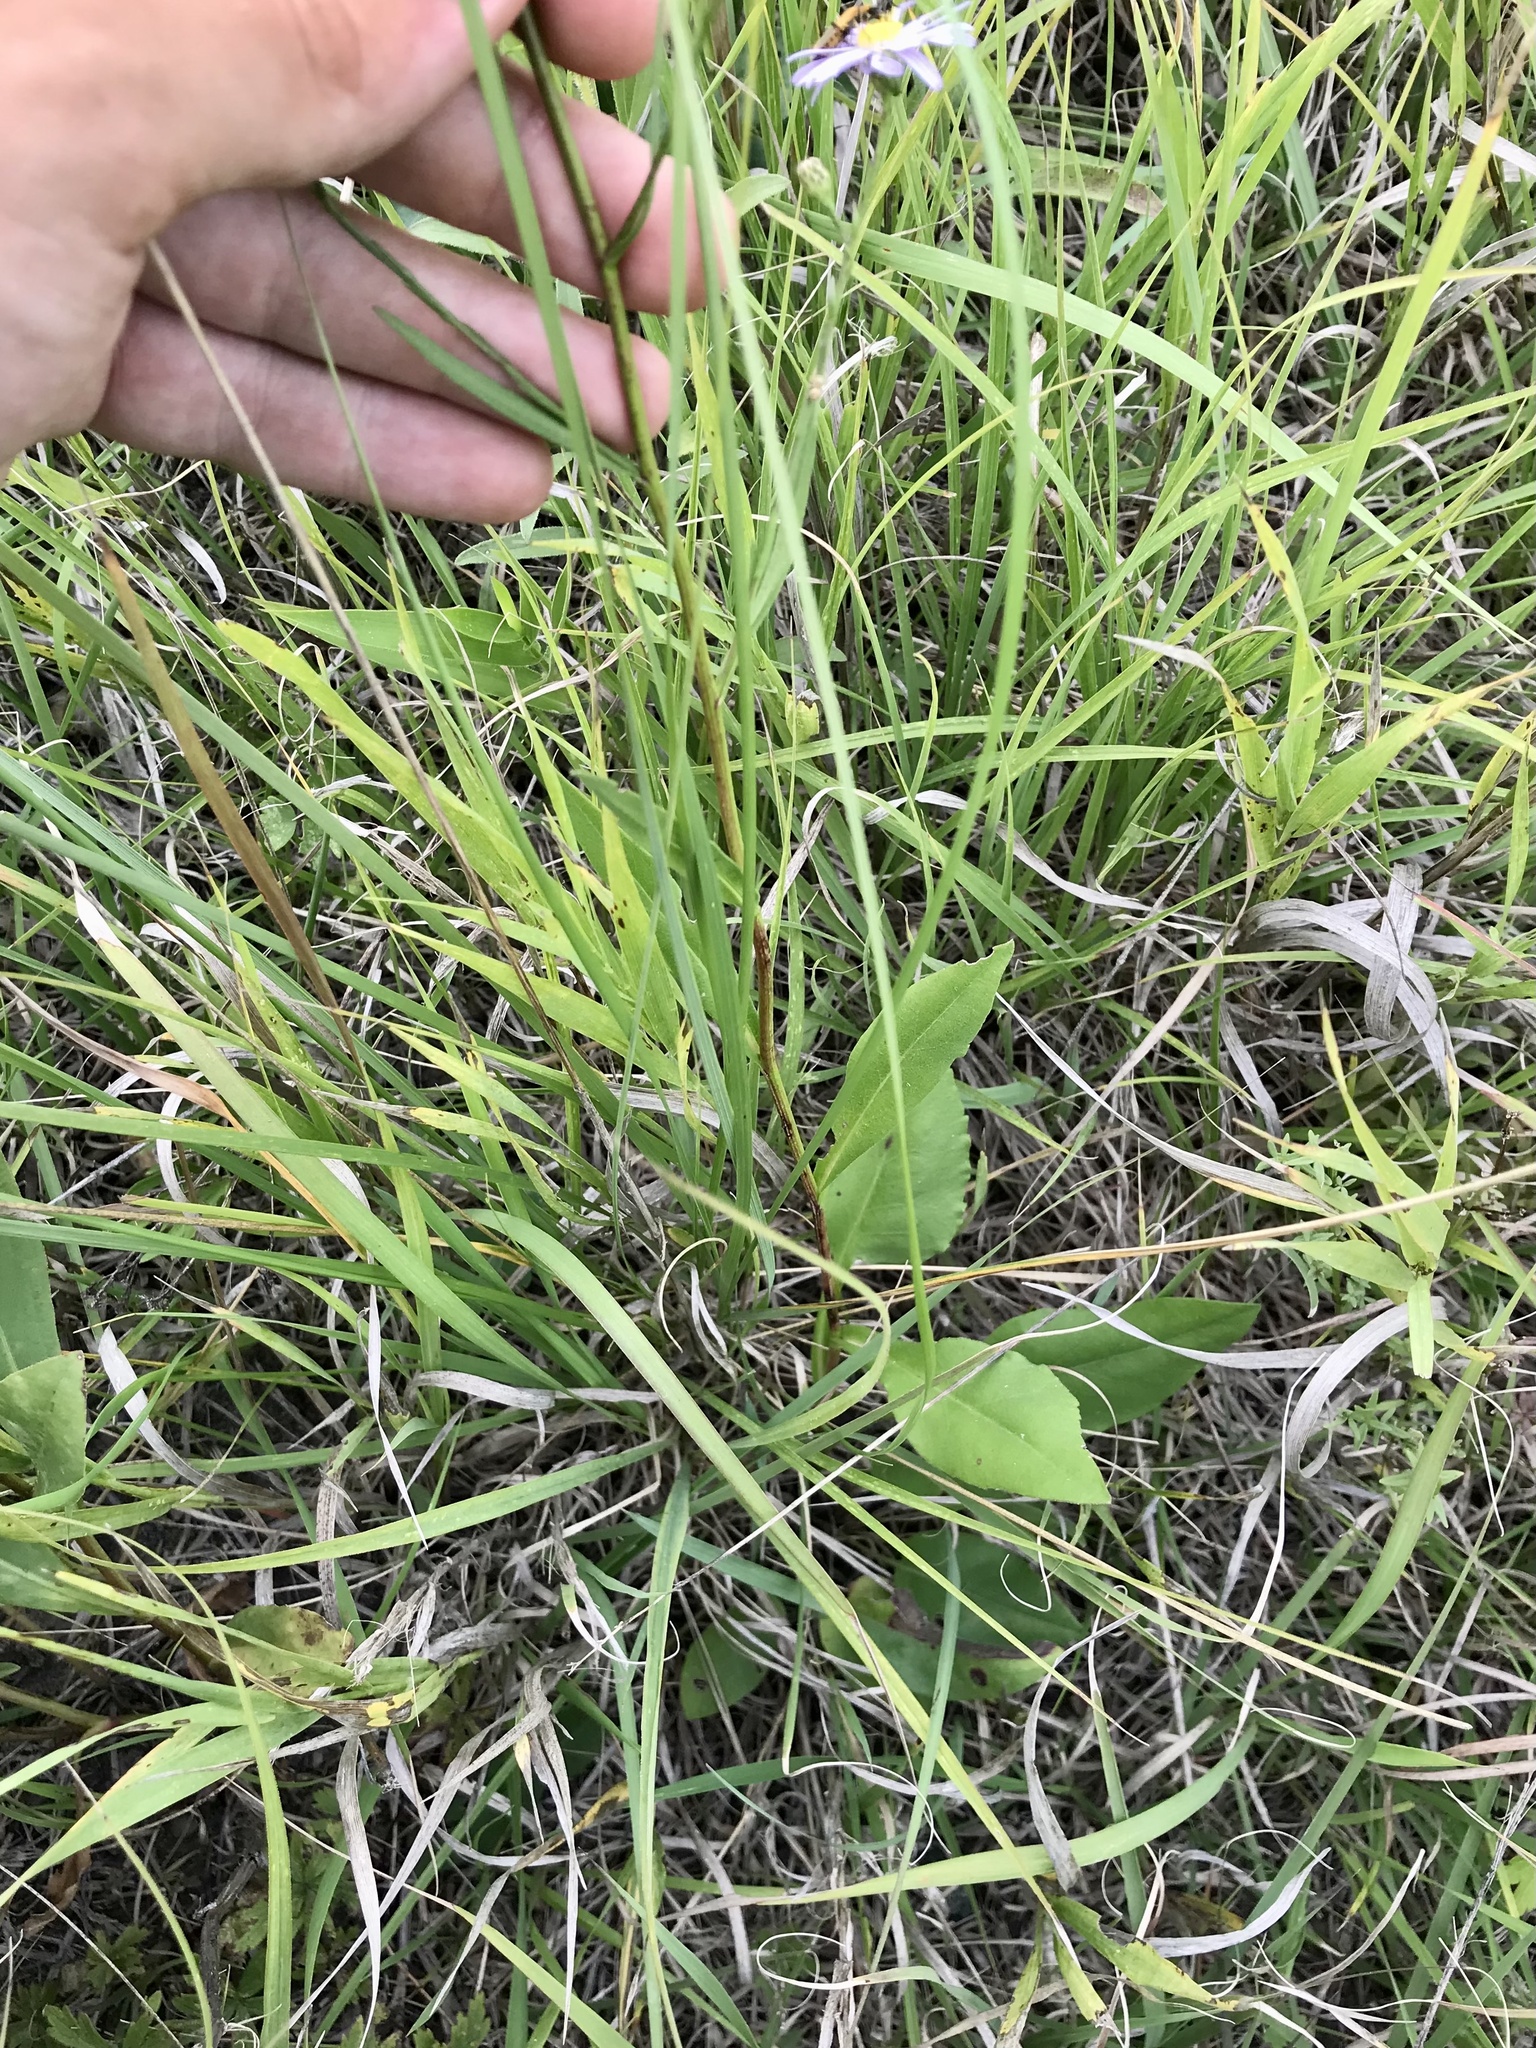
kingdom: Plantae
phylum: Tracheophyta
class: Magnoliopsida
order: Asterales
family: Asteraceae
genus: Symphyotrichum
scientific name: Symphyotrichum oolentangiense
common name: Azure aster
